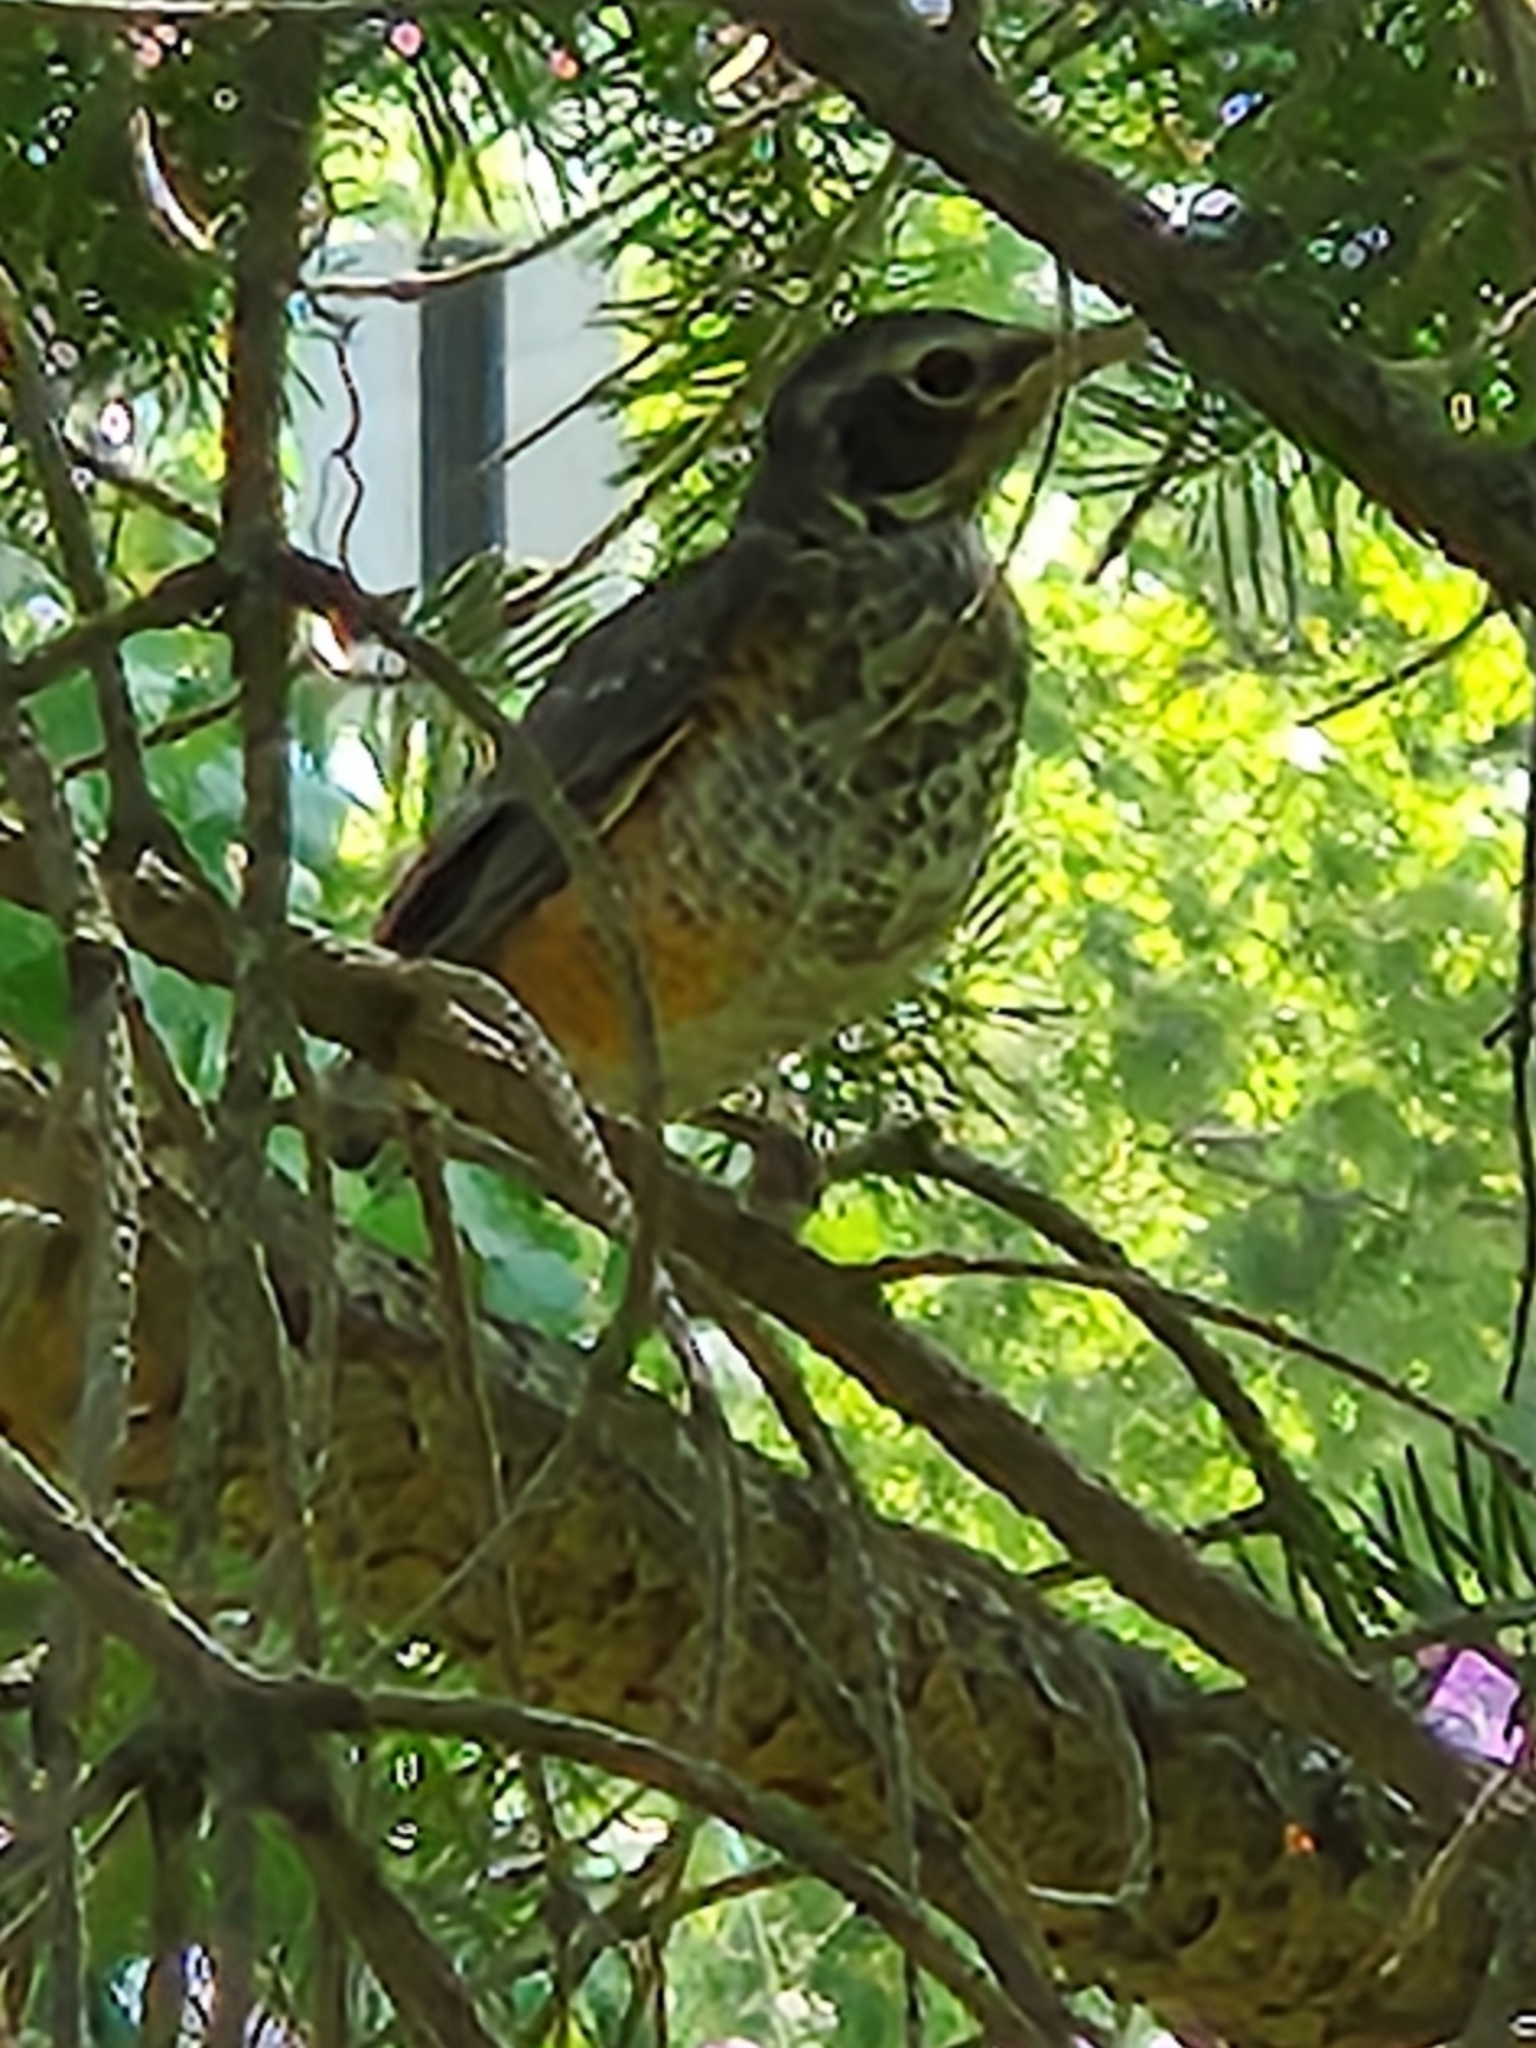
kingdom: Animalia
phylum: Chordata
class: Aves
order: Passeriformes
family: Turdidae
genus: Turdus
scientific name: Turdus migratorius
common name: American robin
